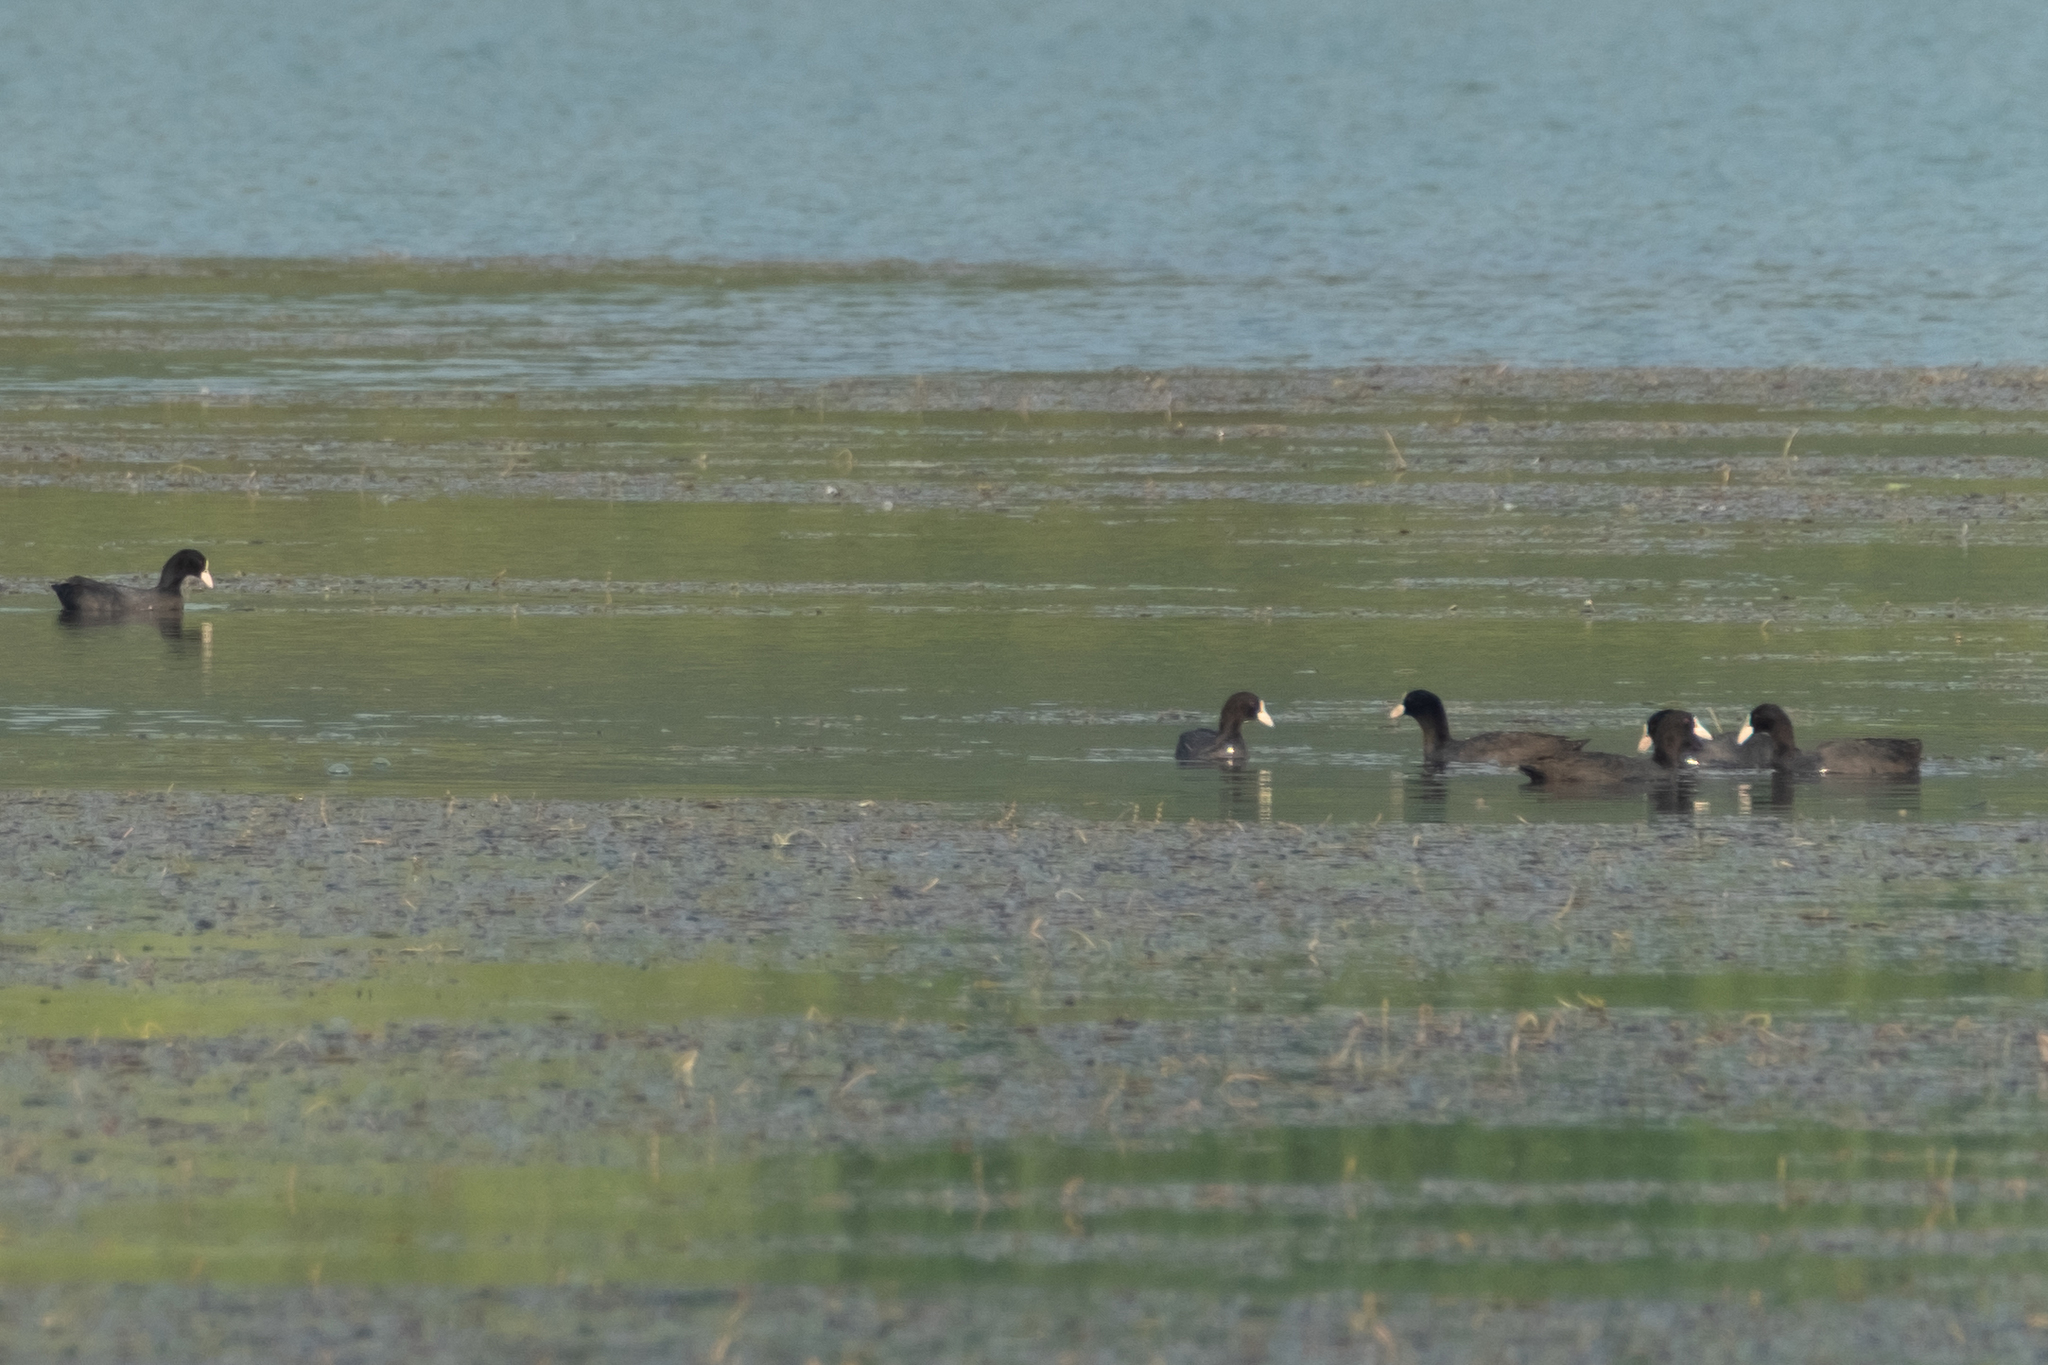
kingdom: Animalia
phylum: Chordata
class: Aves
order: Gruiformes
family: Rallidae
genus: Fulica
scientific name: Fulica atra
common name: Eurasian coot
